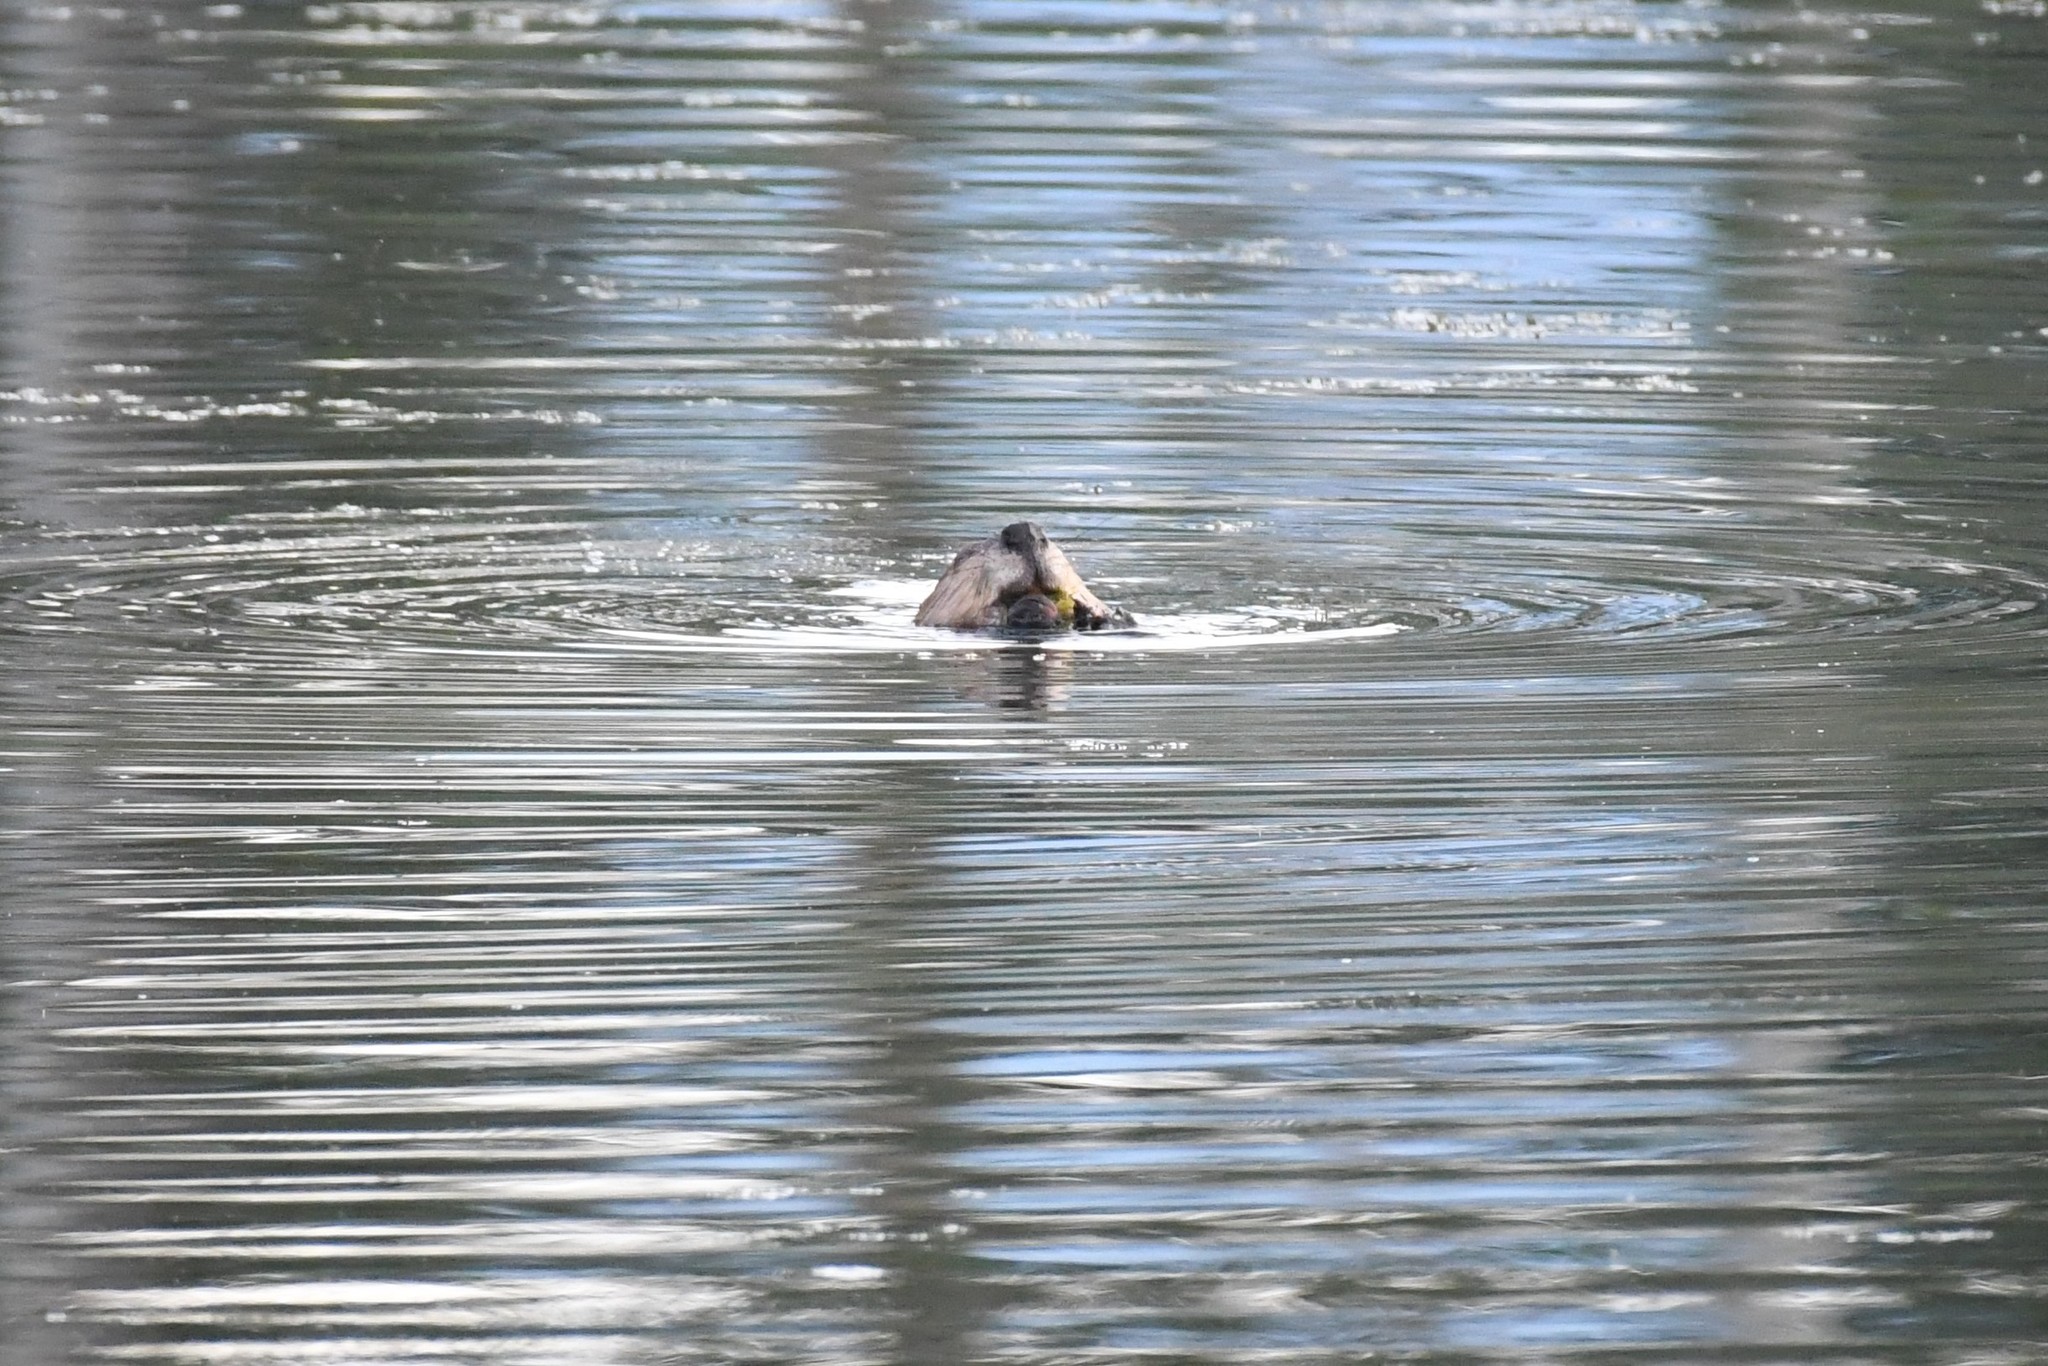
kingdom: Animalia
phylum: Chordata
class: Mammalia
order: Rodentia
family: Castoridae
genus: Castor
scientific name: Castor canadensis
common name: American beaver
